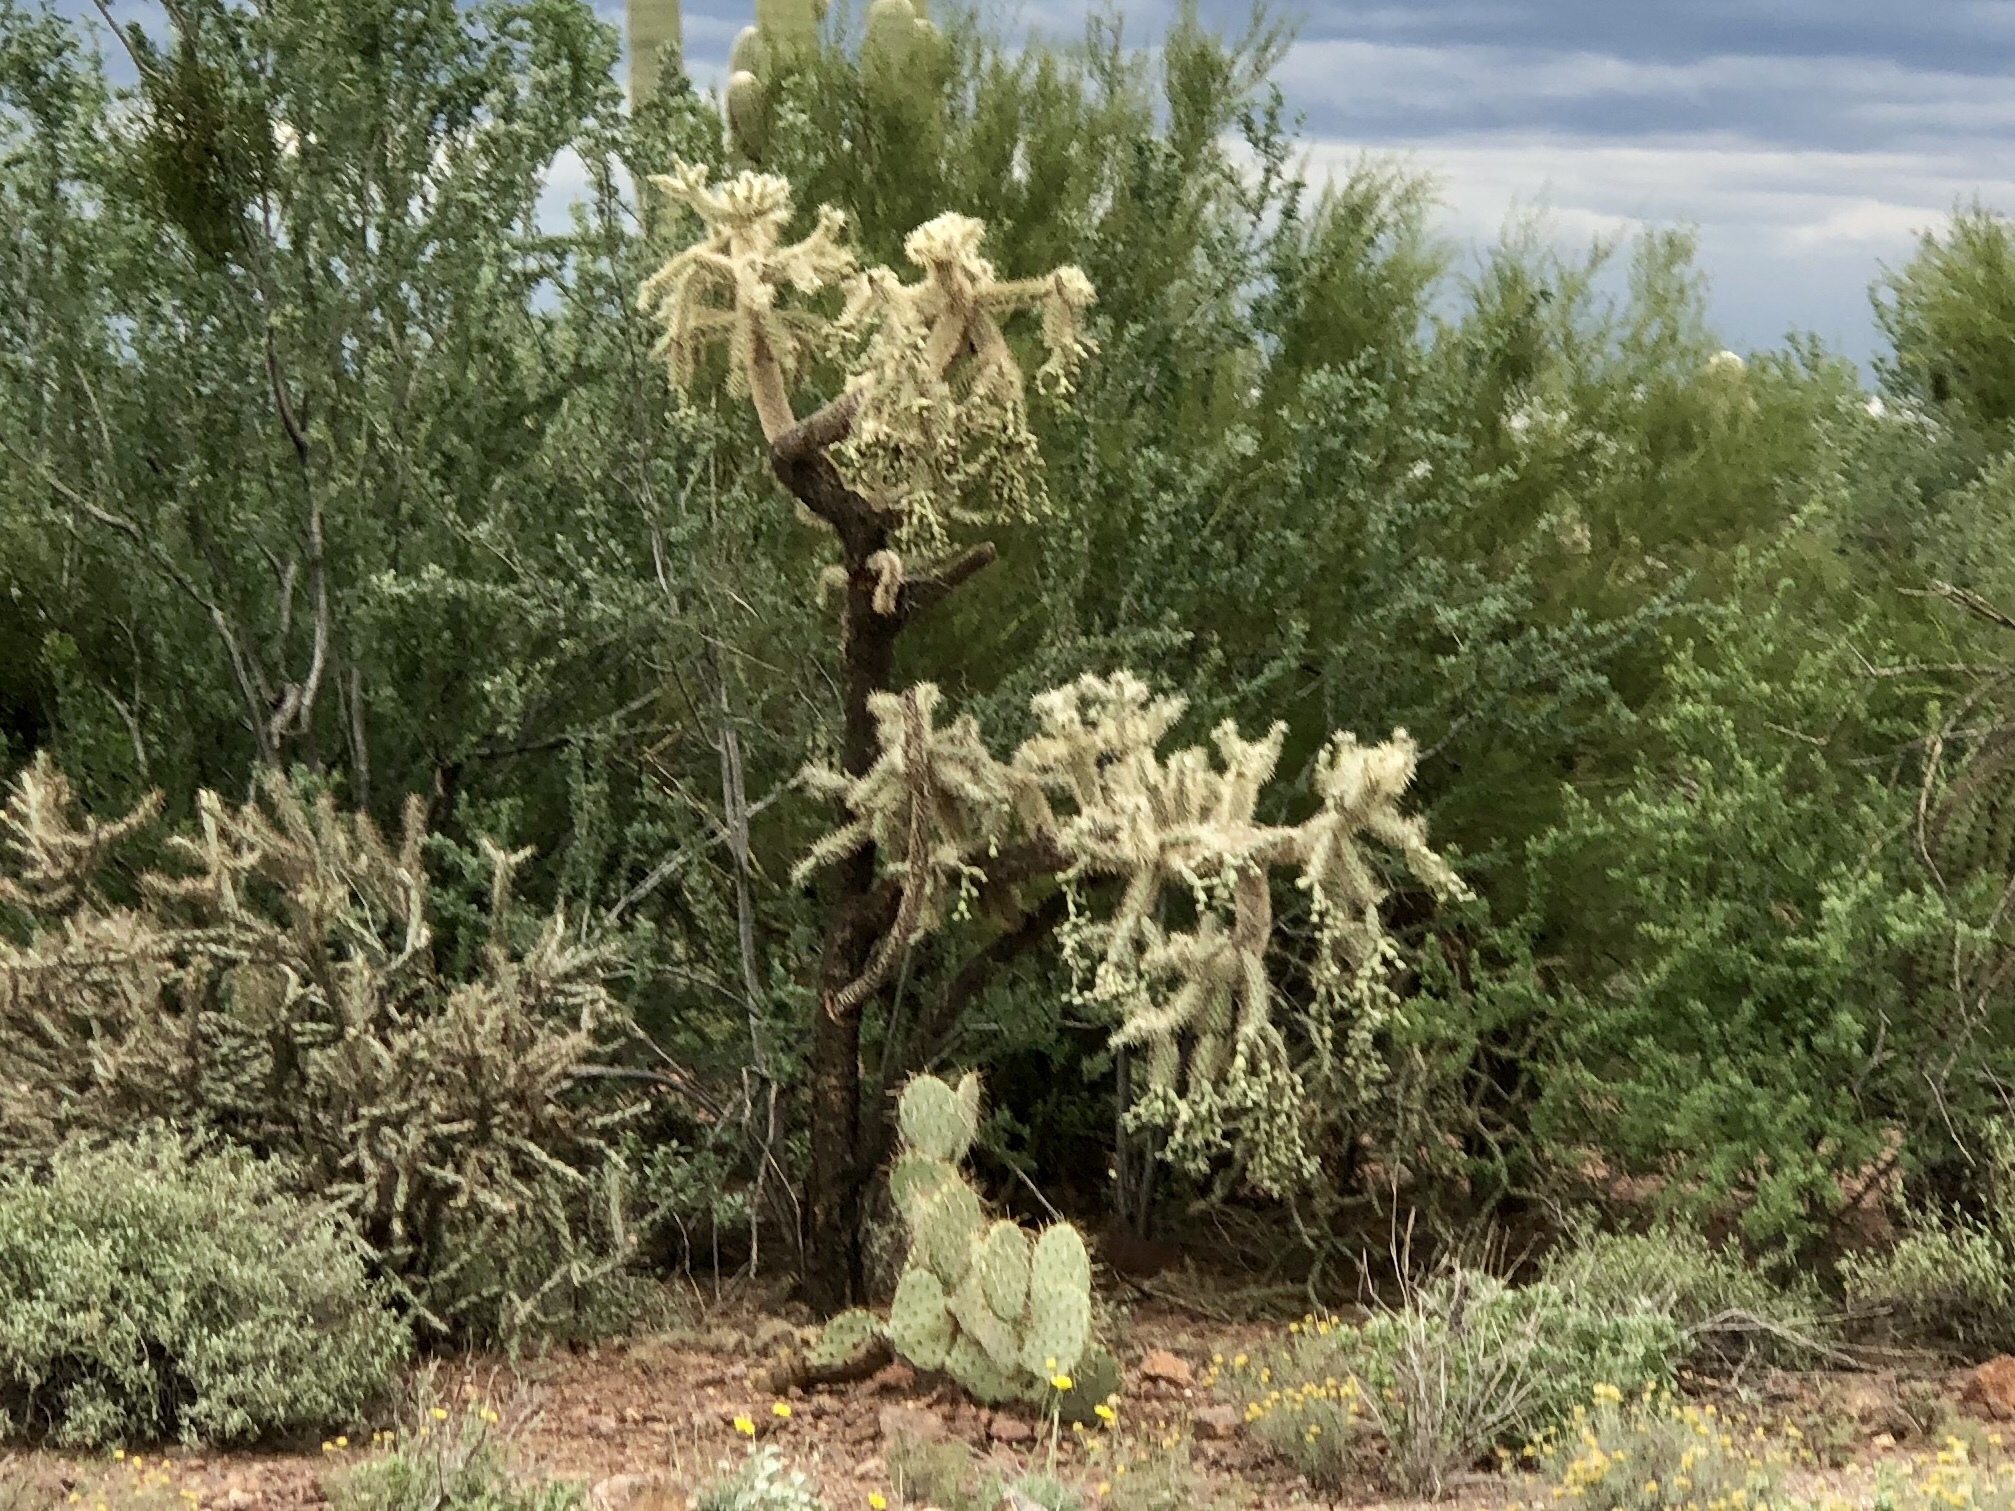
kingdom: Plantae
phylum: Tracheophyta
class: Magnoliopsida
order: Caryophyllales
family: Cactaceae
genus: Cylindropuntia
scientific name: Cylindropuntia fulgida
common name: Jumping cholla
